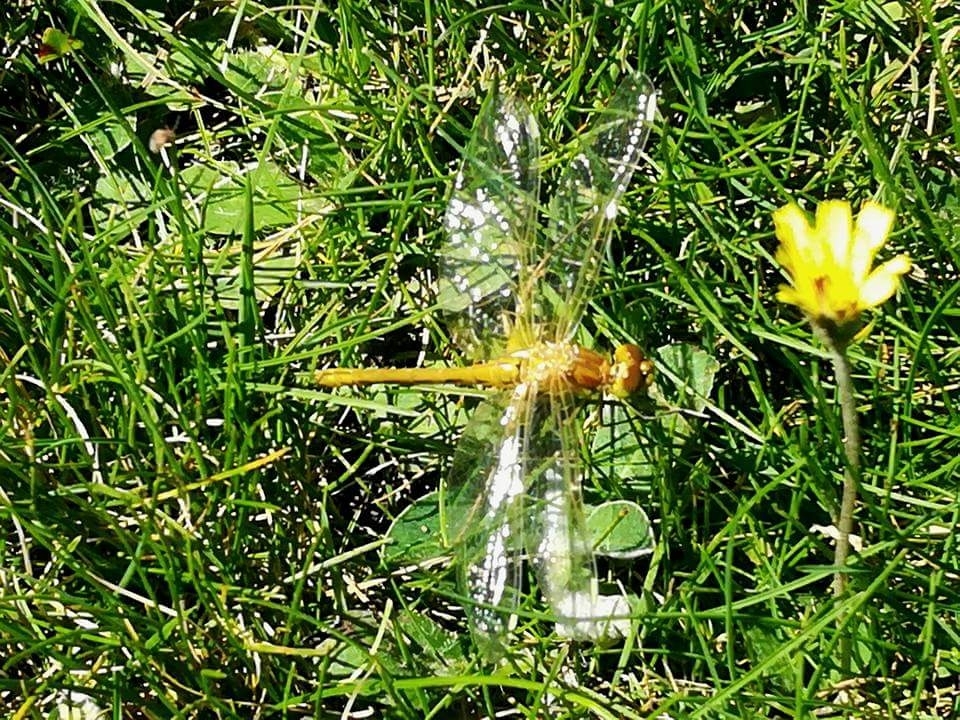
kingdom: Animalia
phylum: Arthropoda
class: Insecta
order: Odonata
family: Libellulidae
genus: Sympetrum
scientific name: Sympetrum flaveolum
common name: Yellow-winged darter
